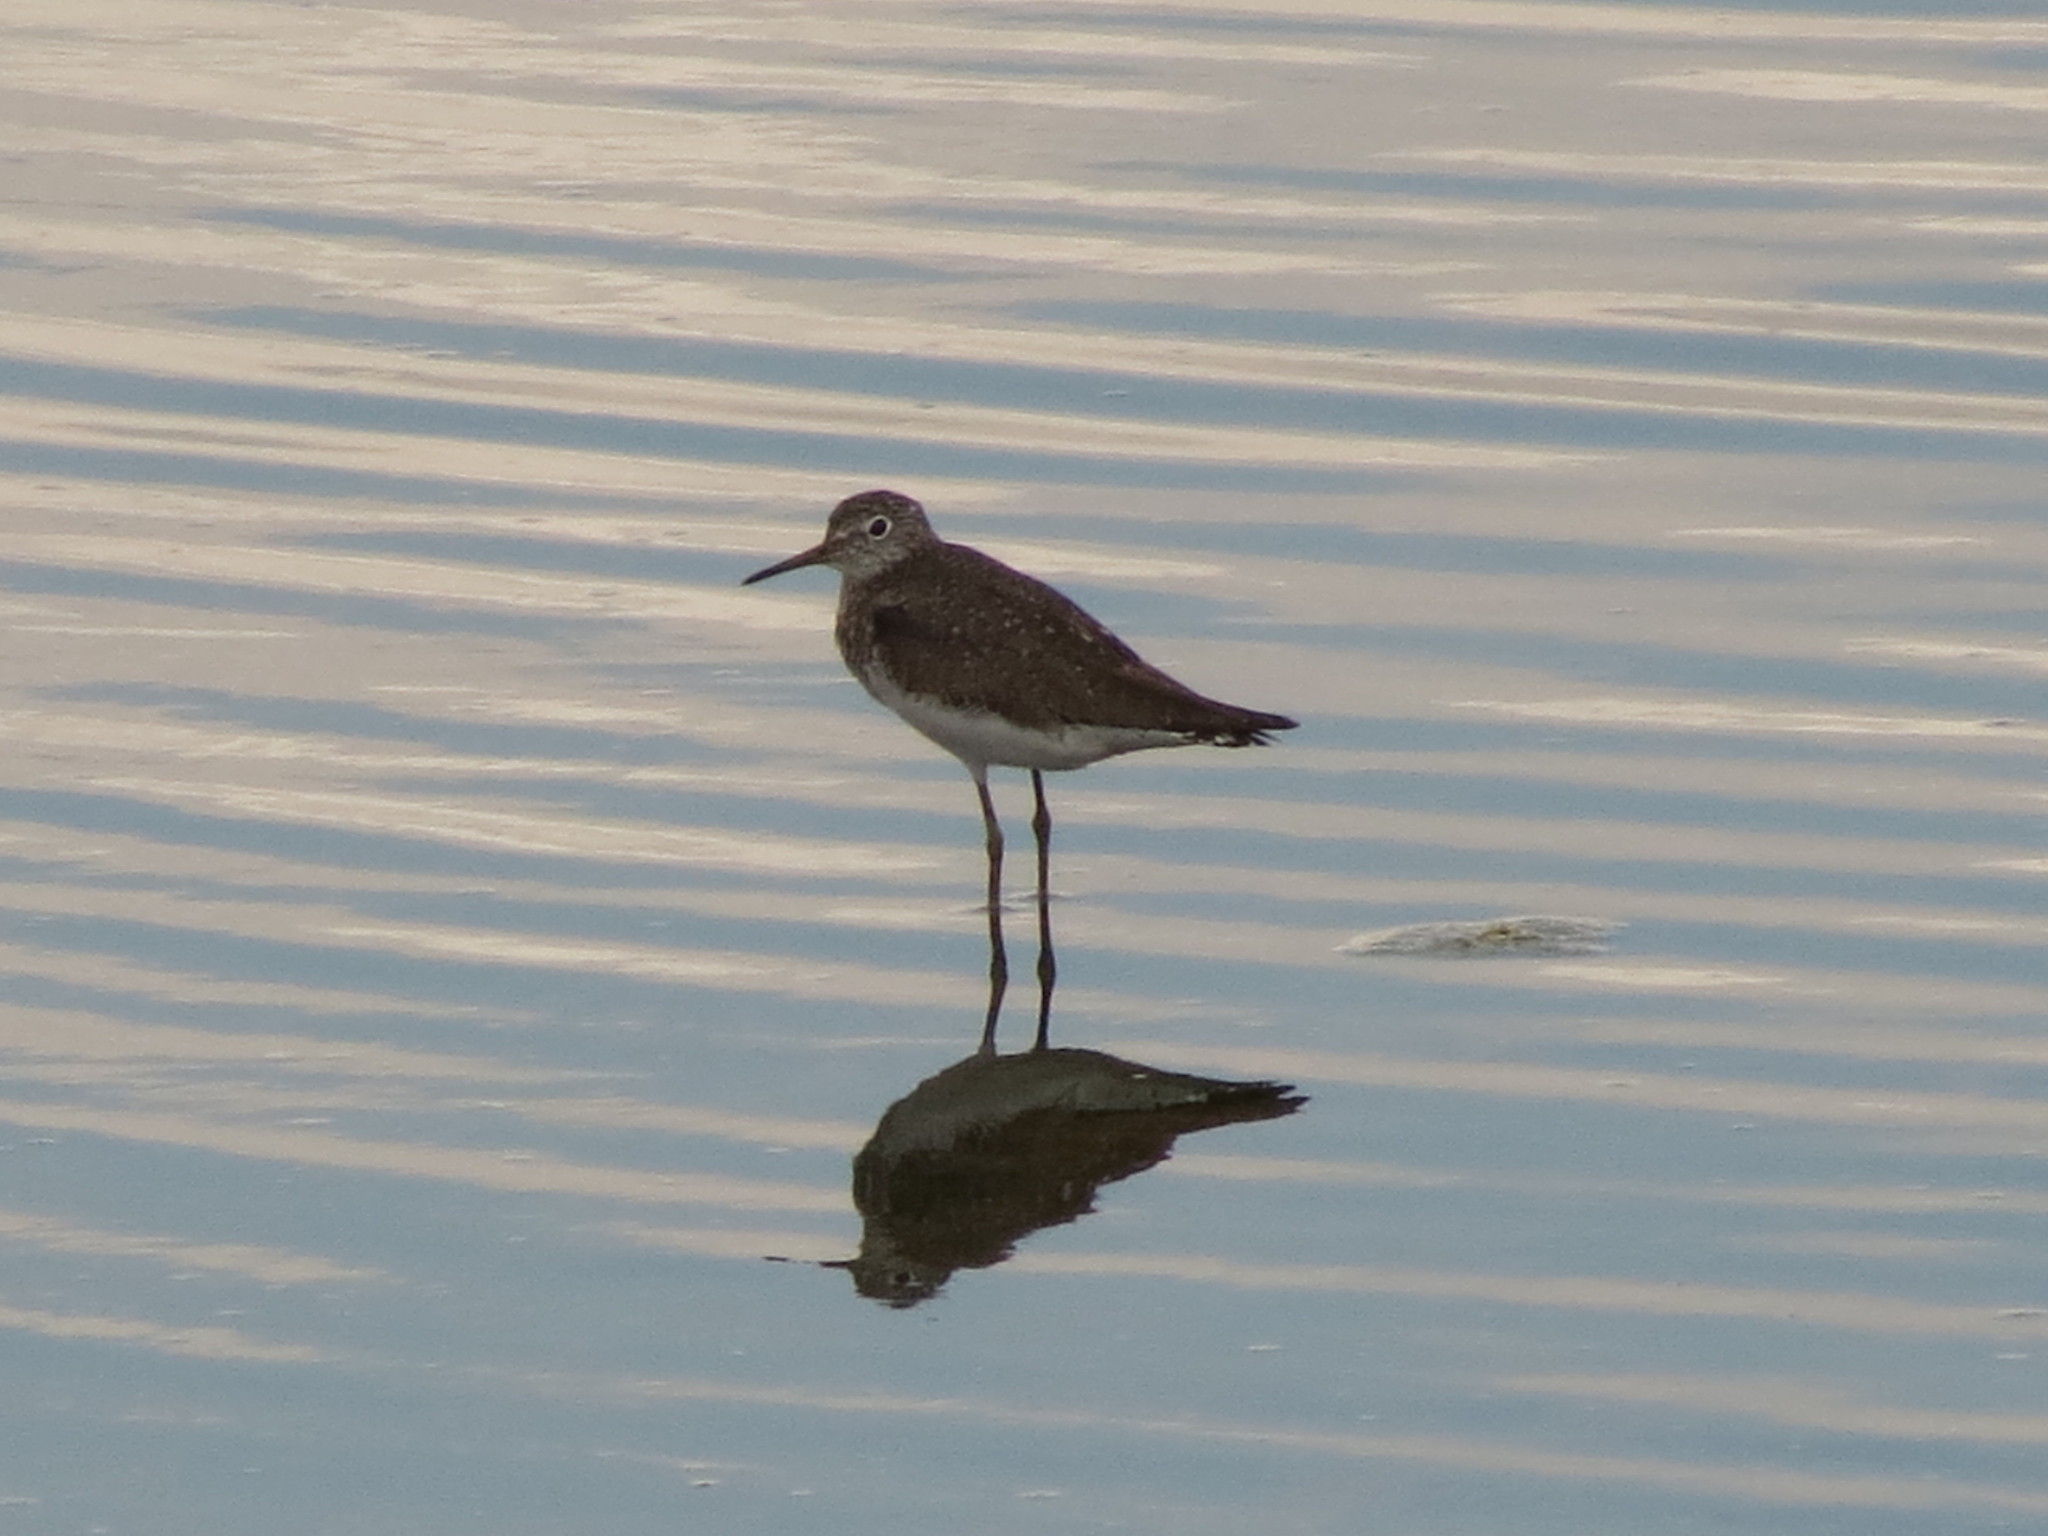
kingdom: Animalia
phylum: Chordata
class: Aves
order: Charadriiformes
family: Scolopacidae
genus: Tringa
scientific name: Tringa solitaria
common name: Solitary sandpiper
